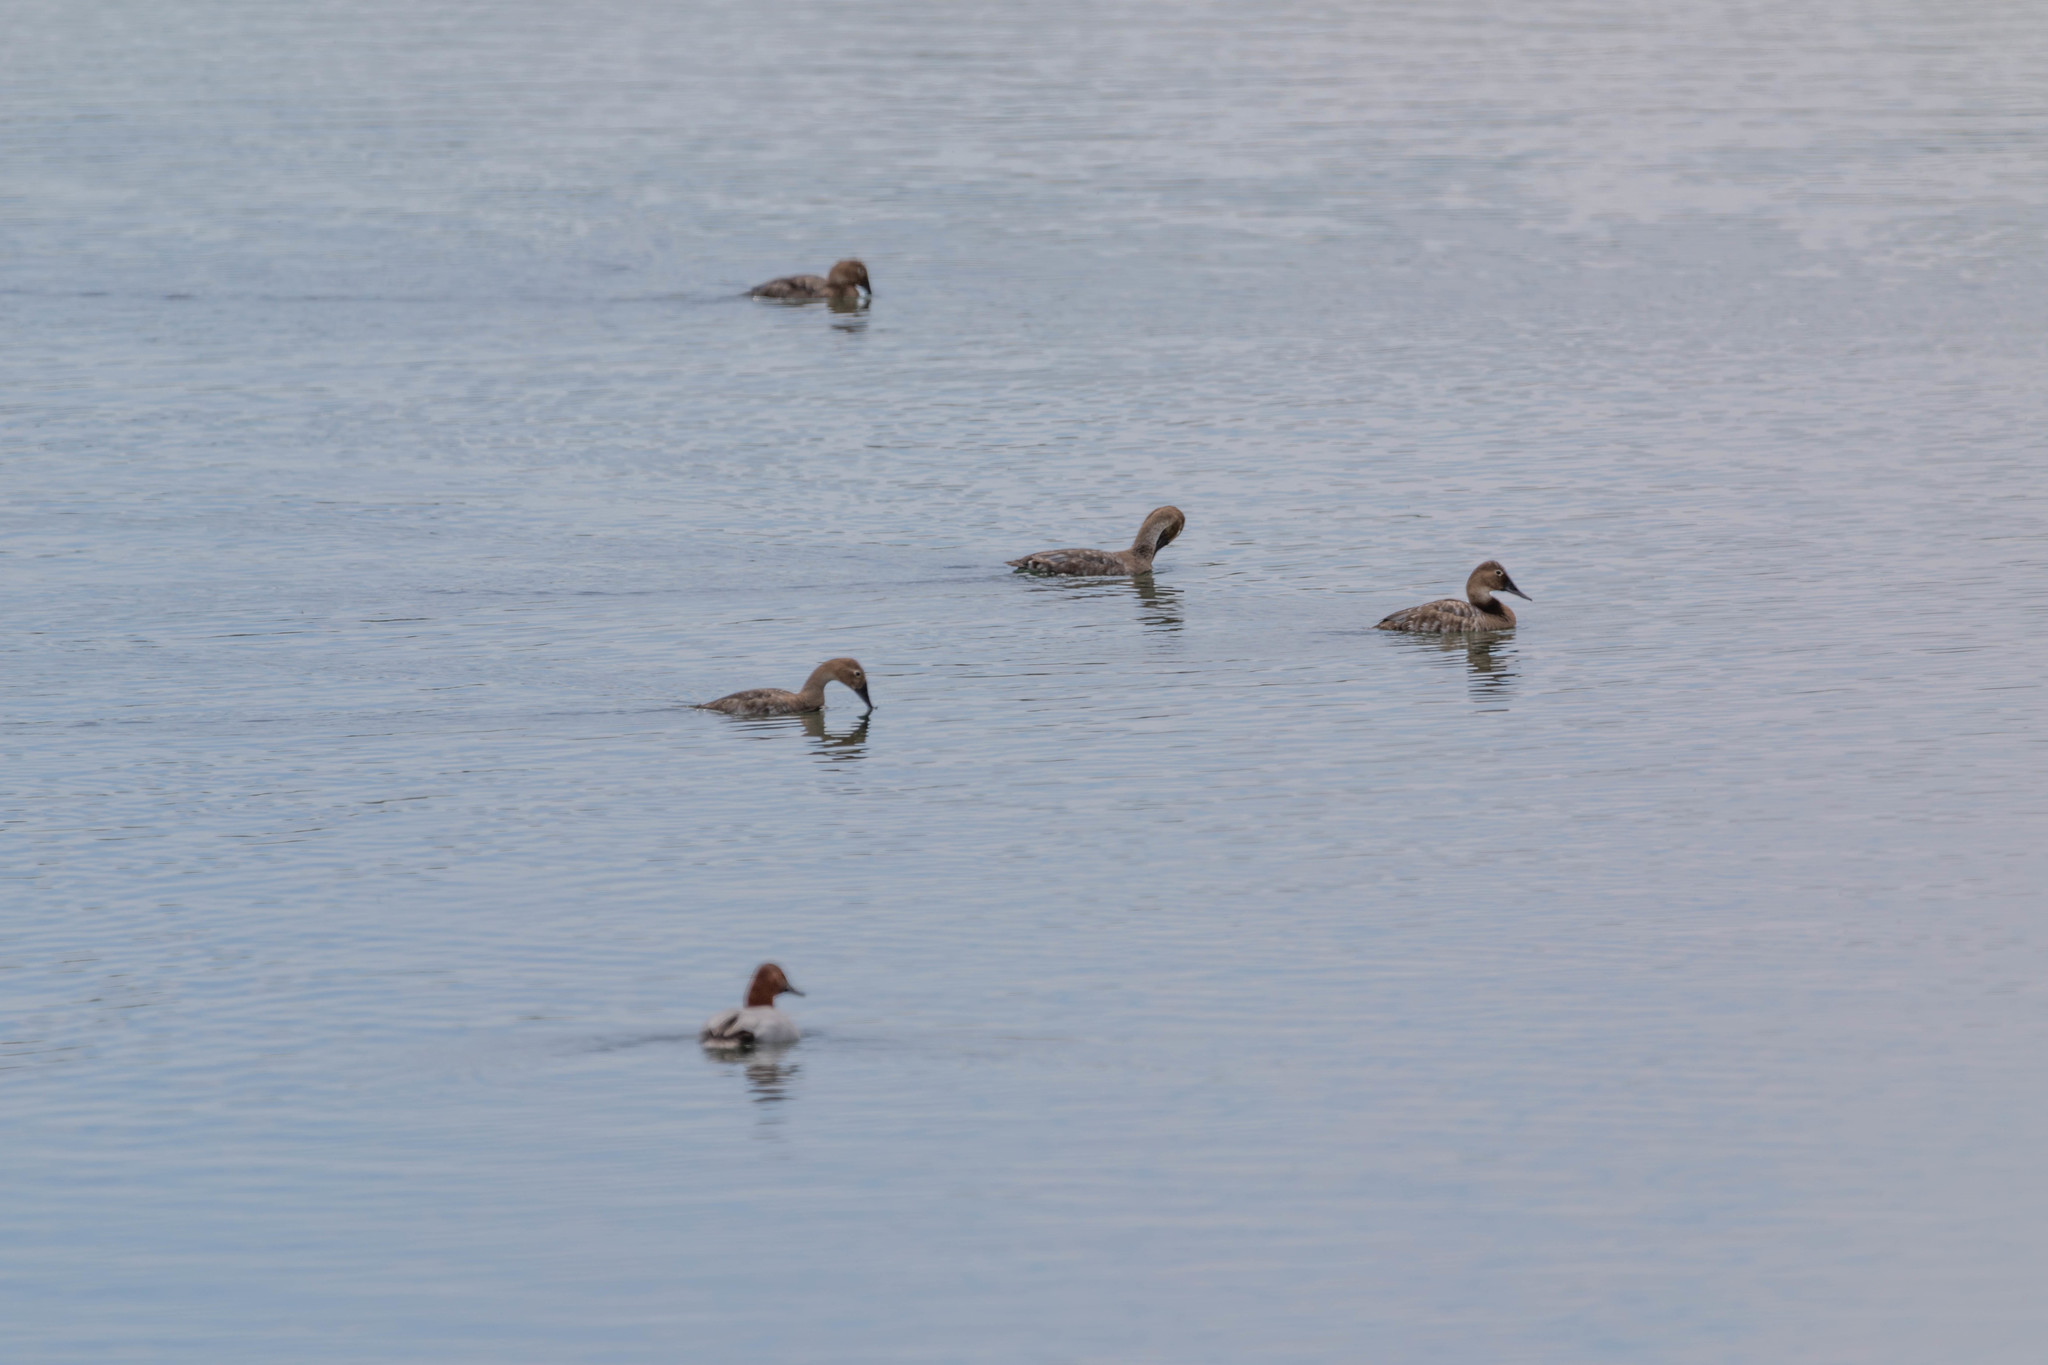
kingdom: Animalia
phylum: Chordata
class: Aves
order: Anseriformes
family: Anatidae
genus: Aythya
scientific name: Aythya valisineria
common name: Canvasback
